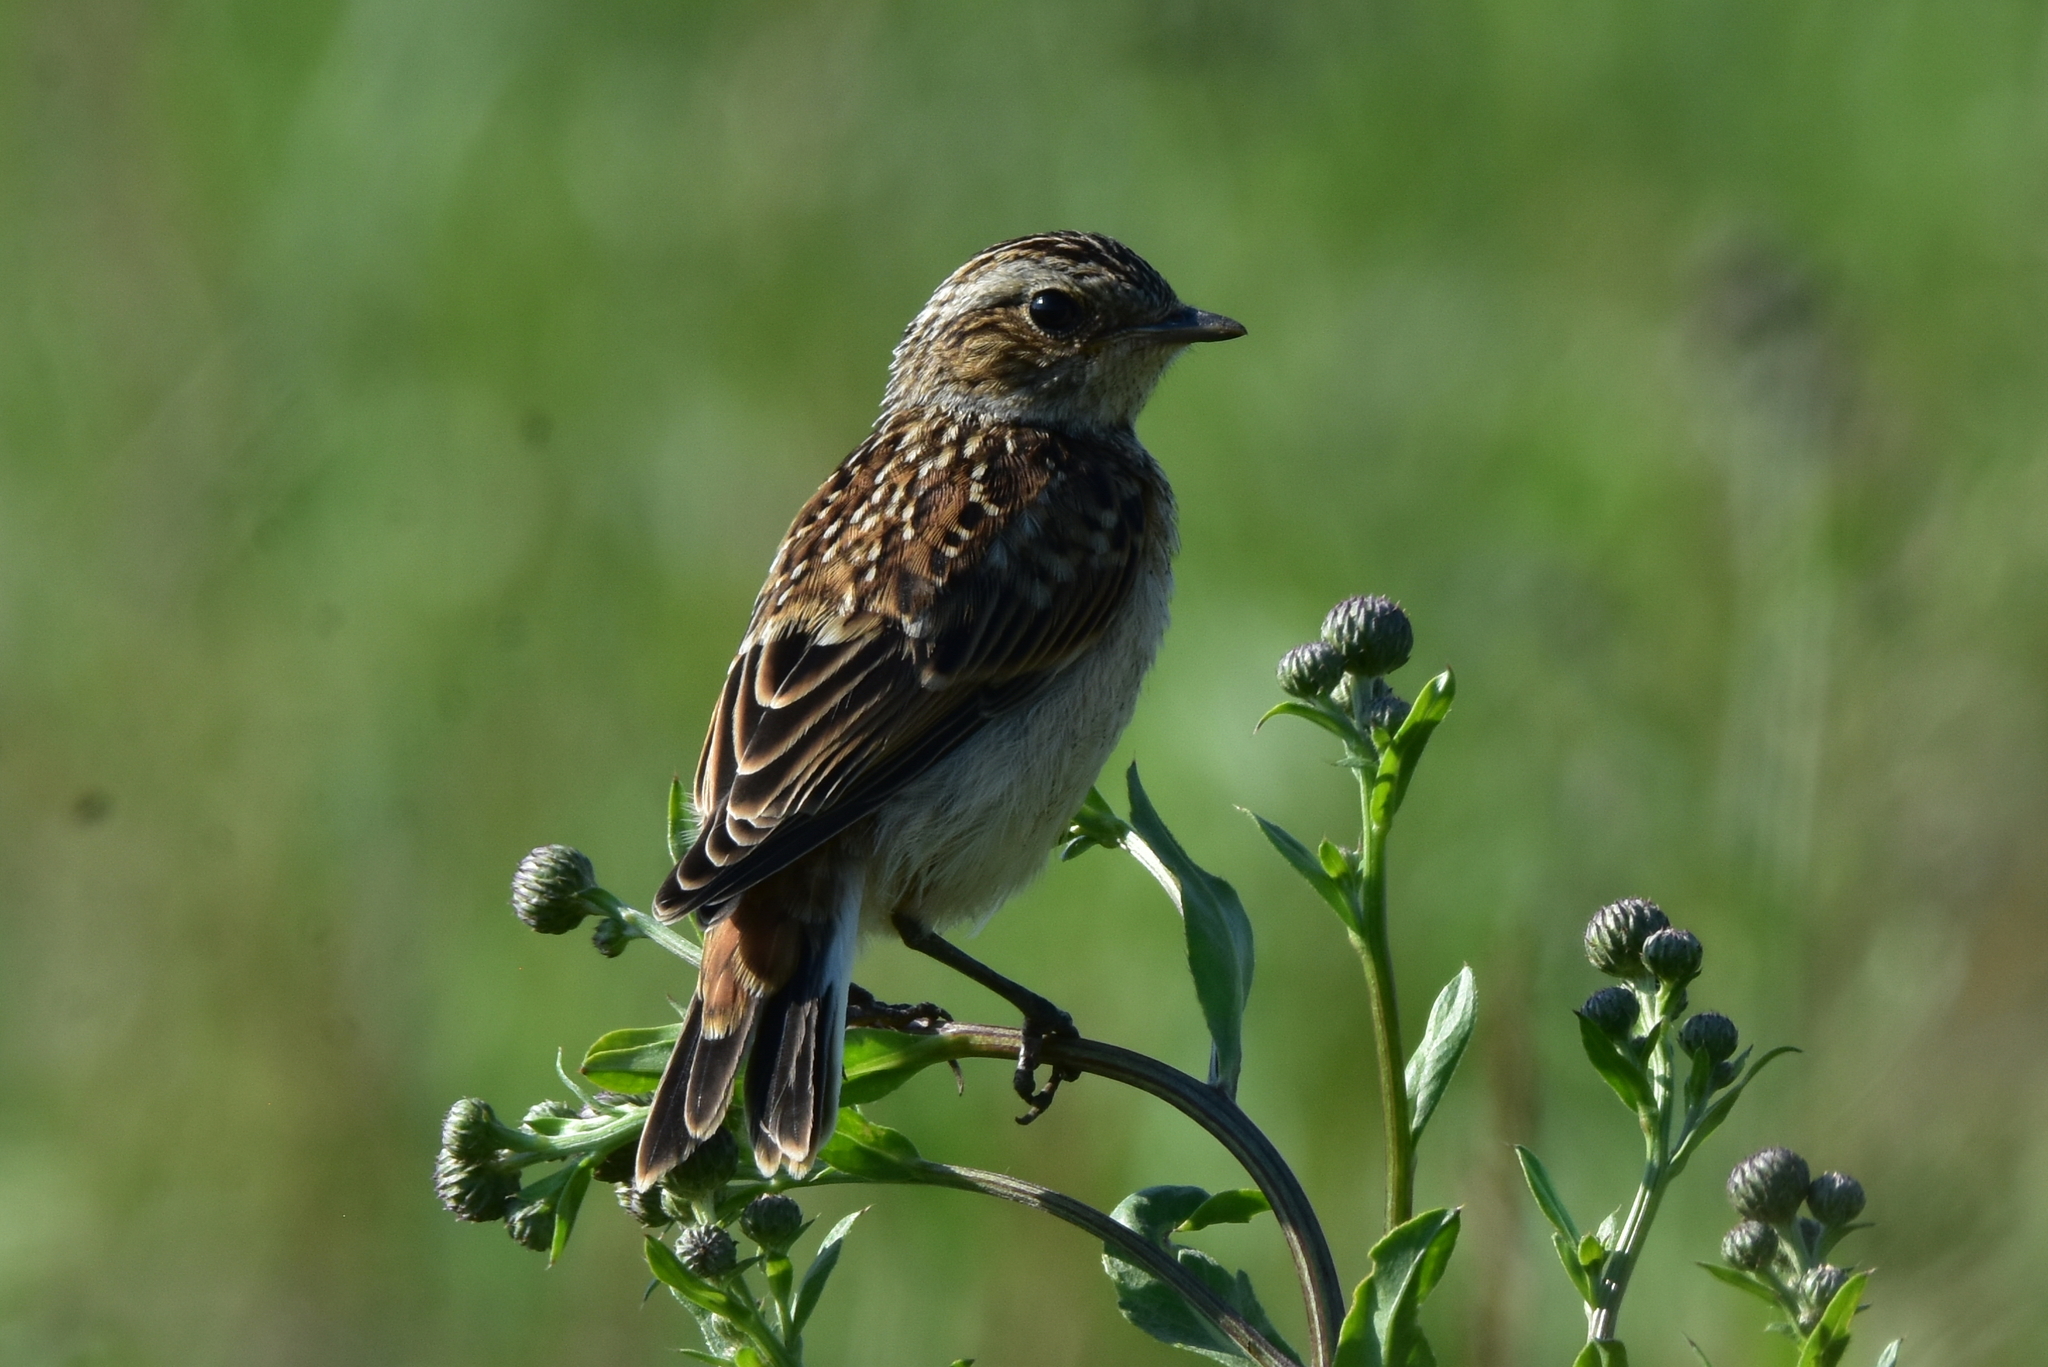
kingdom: Animalia
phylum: Chordata
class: Aves
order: Passeriformes
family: Muscicapidae
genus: Saxicola
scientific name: Saxicola rubetra
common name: Whinchat
